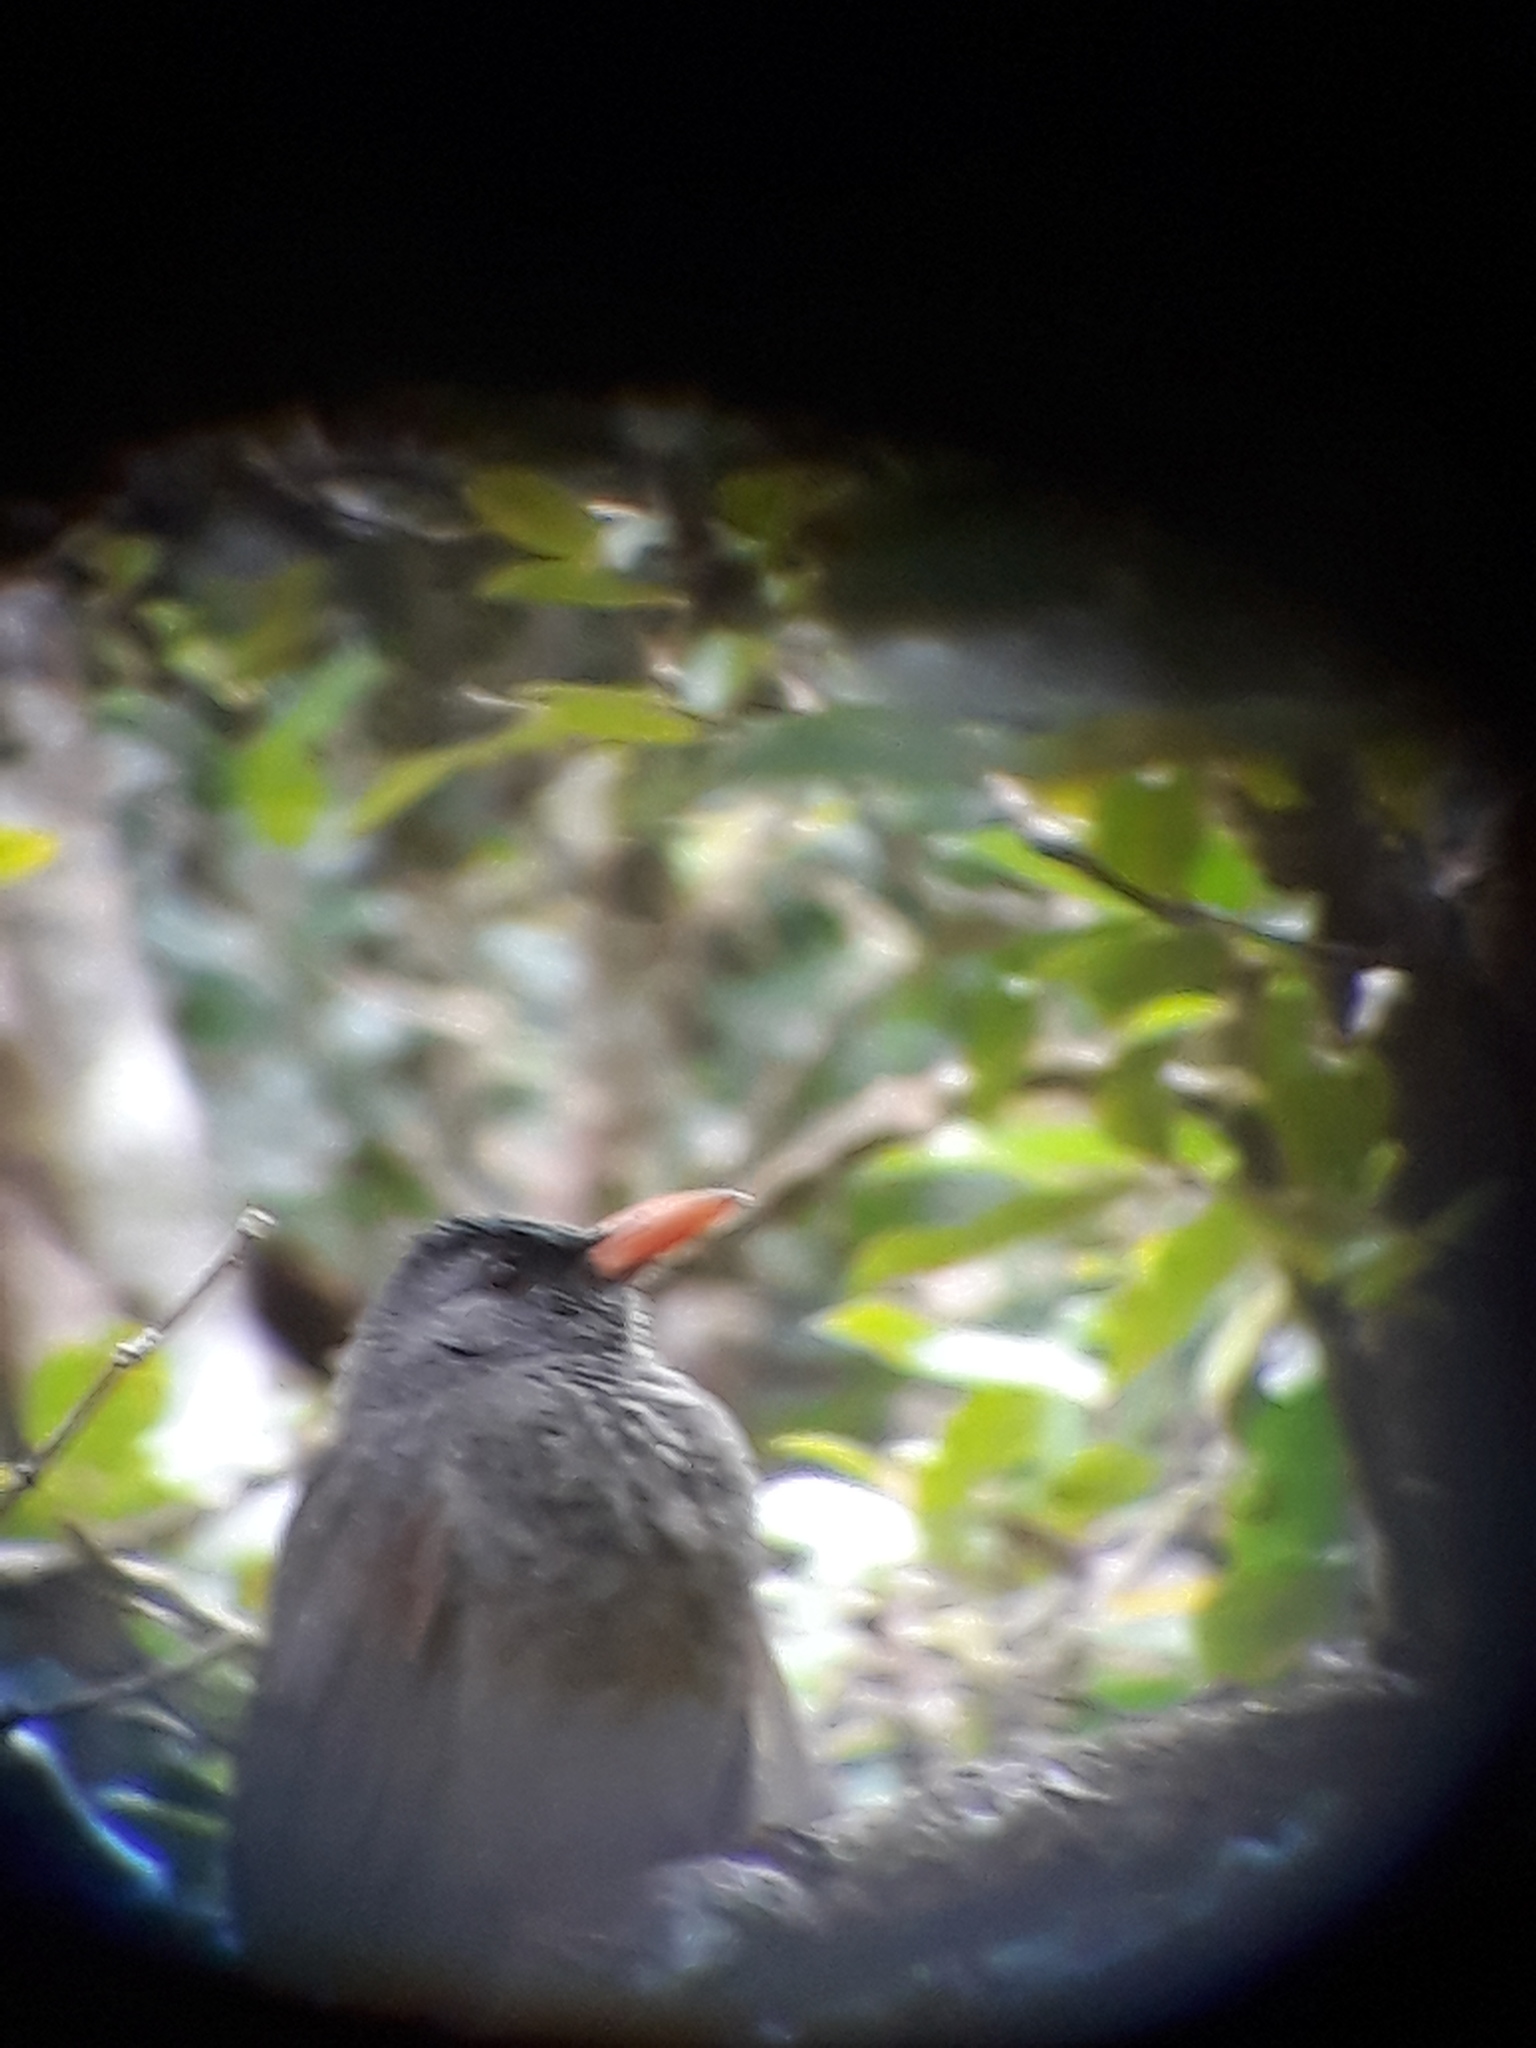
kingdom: Animalia
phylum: Chordata
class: Aves
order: Passeriformes
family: Pycnonotidae
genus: Hypsipetes
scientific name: Hypsipetes olivaceus
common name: Mauritius bulbul
